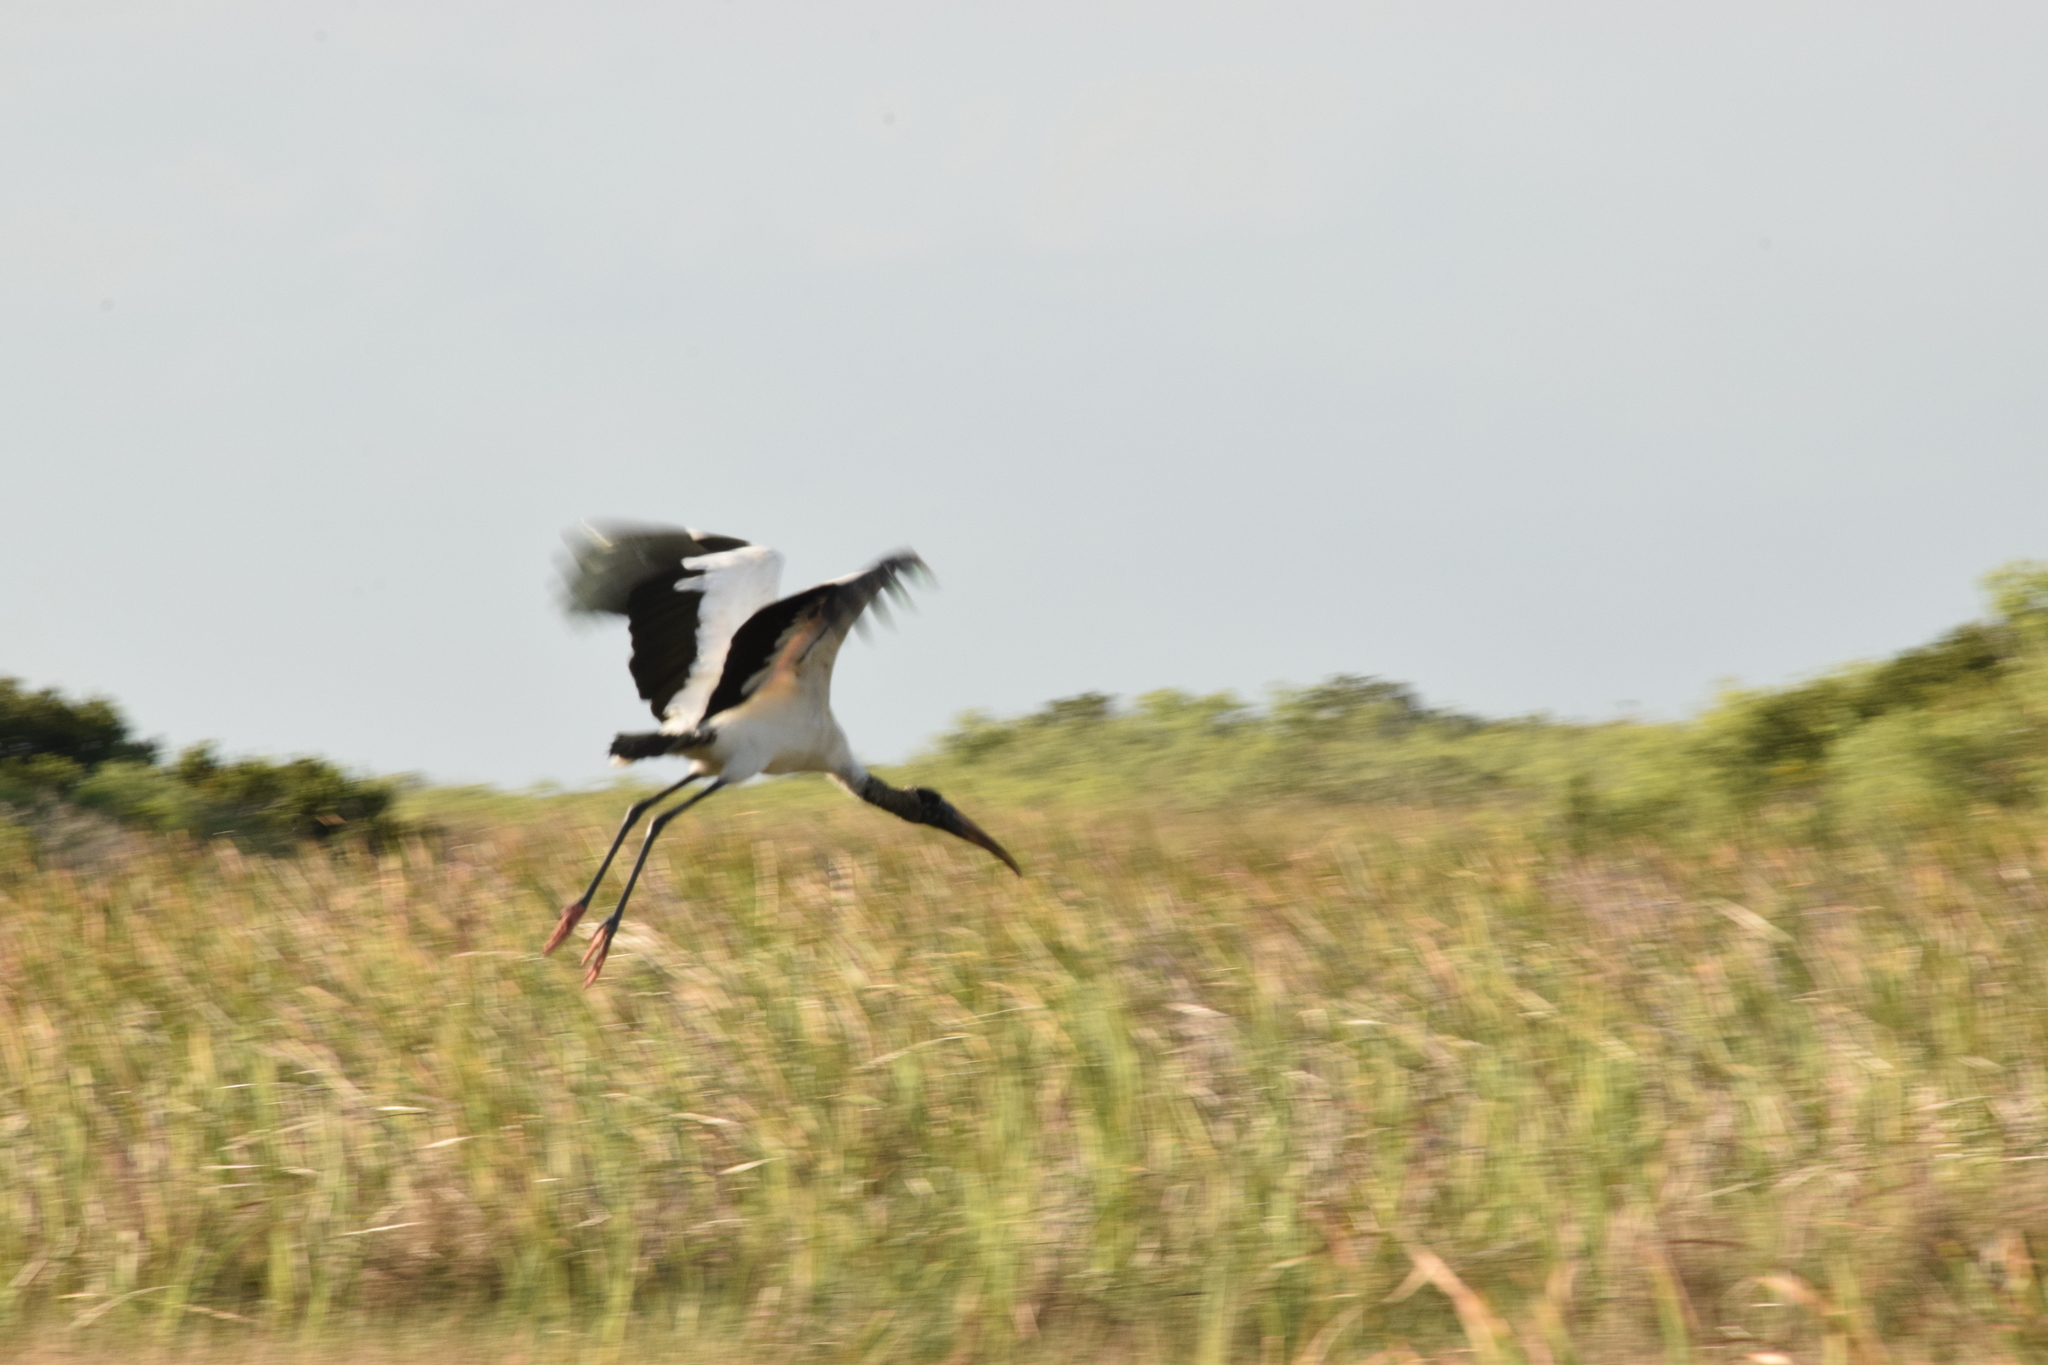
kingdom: Animalia
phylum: Chordata
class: Aves
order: Ciconiiformes
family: Ciconiidae
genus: Mycteria
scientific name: Mycteria americana
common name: Wood stork
